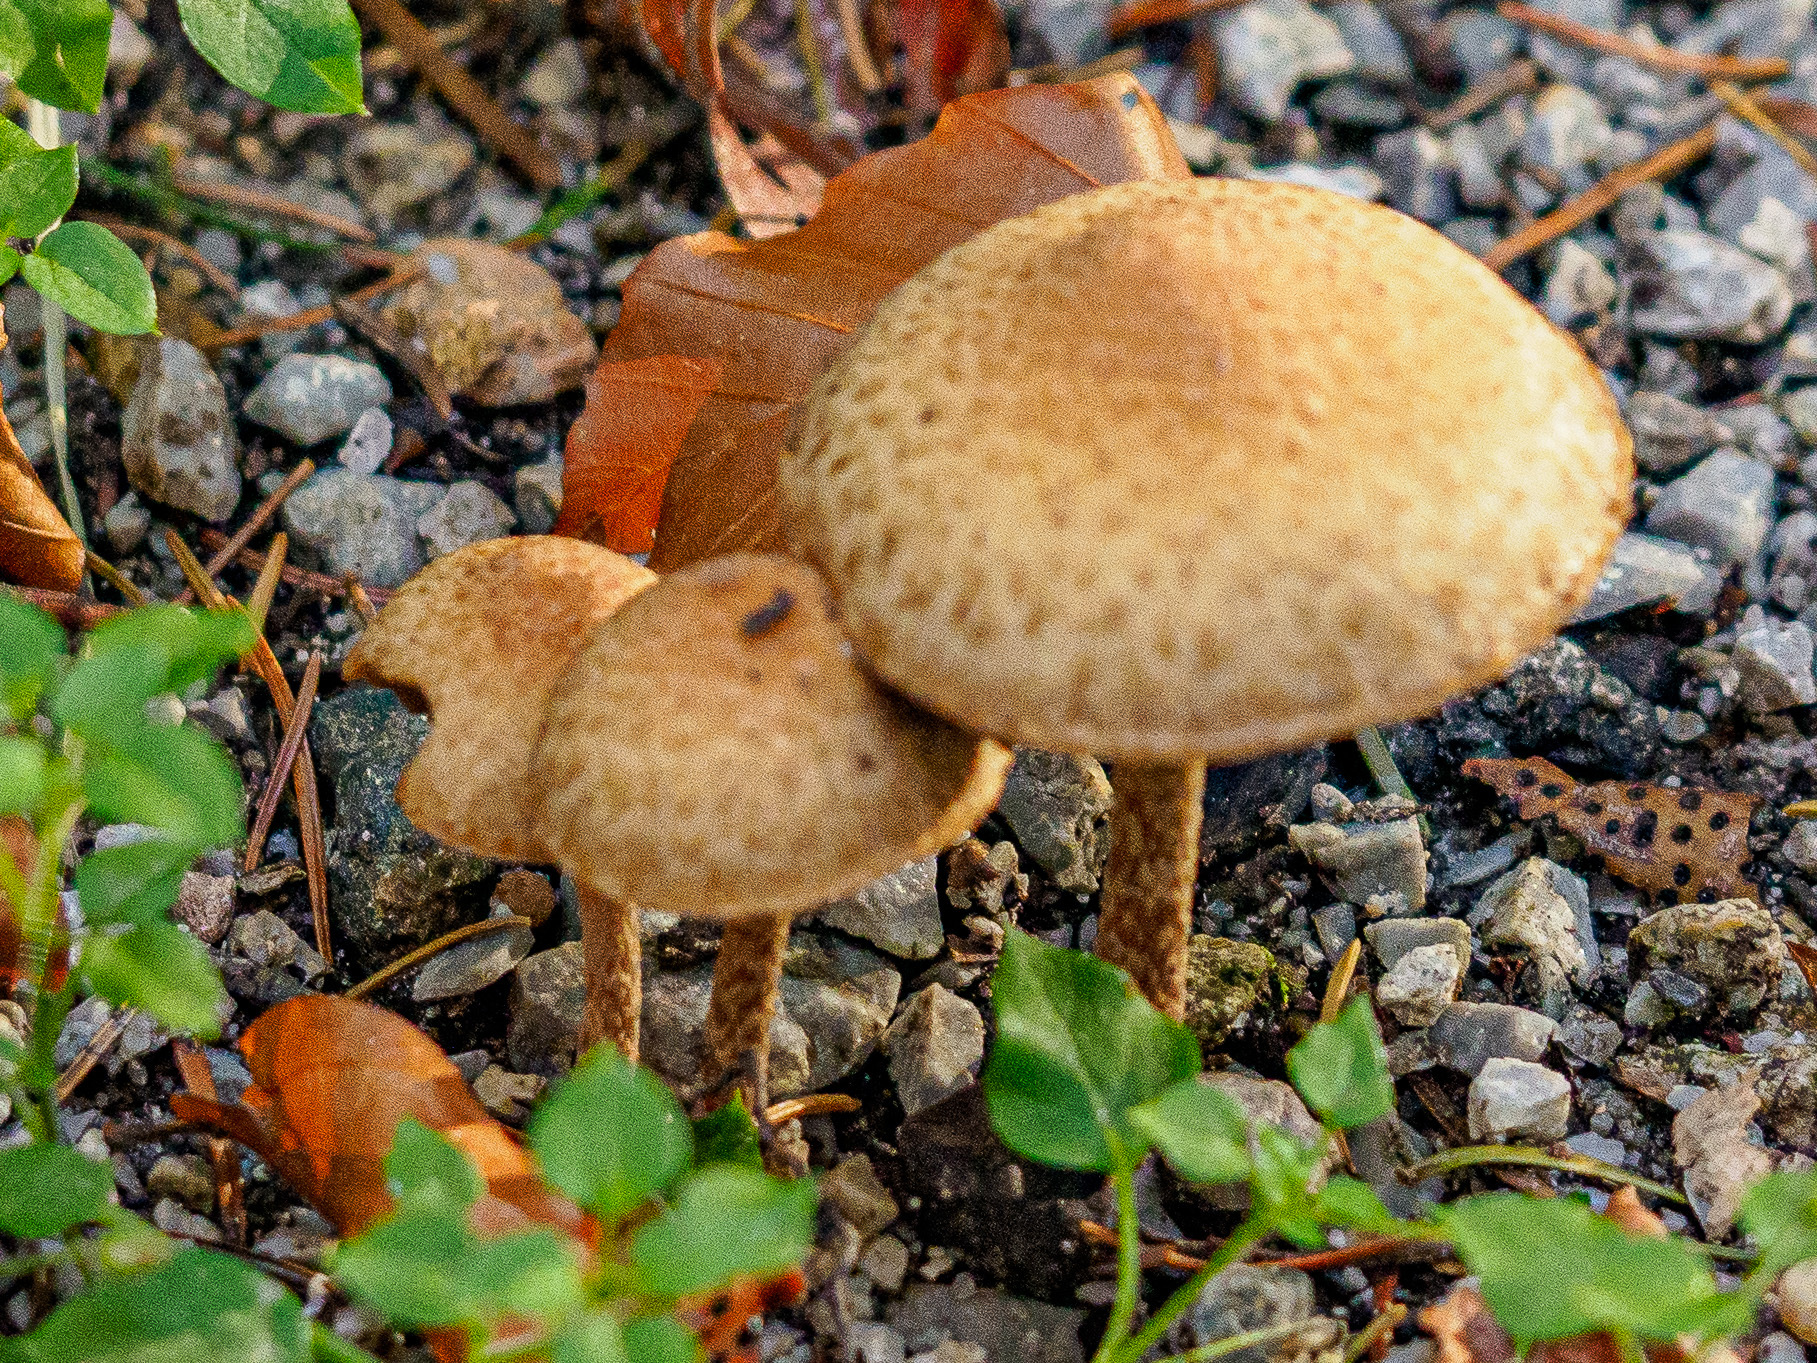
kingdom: Fungi
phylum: Basidiomycota
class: Agaricomycetes
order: Agaricales
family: Psathyrellaceae
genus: Lacrymaria
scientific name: Lacrymaria lacrymabunda
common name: Weeping widow
